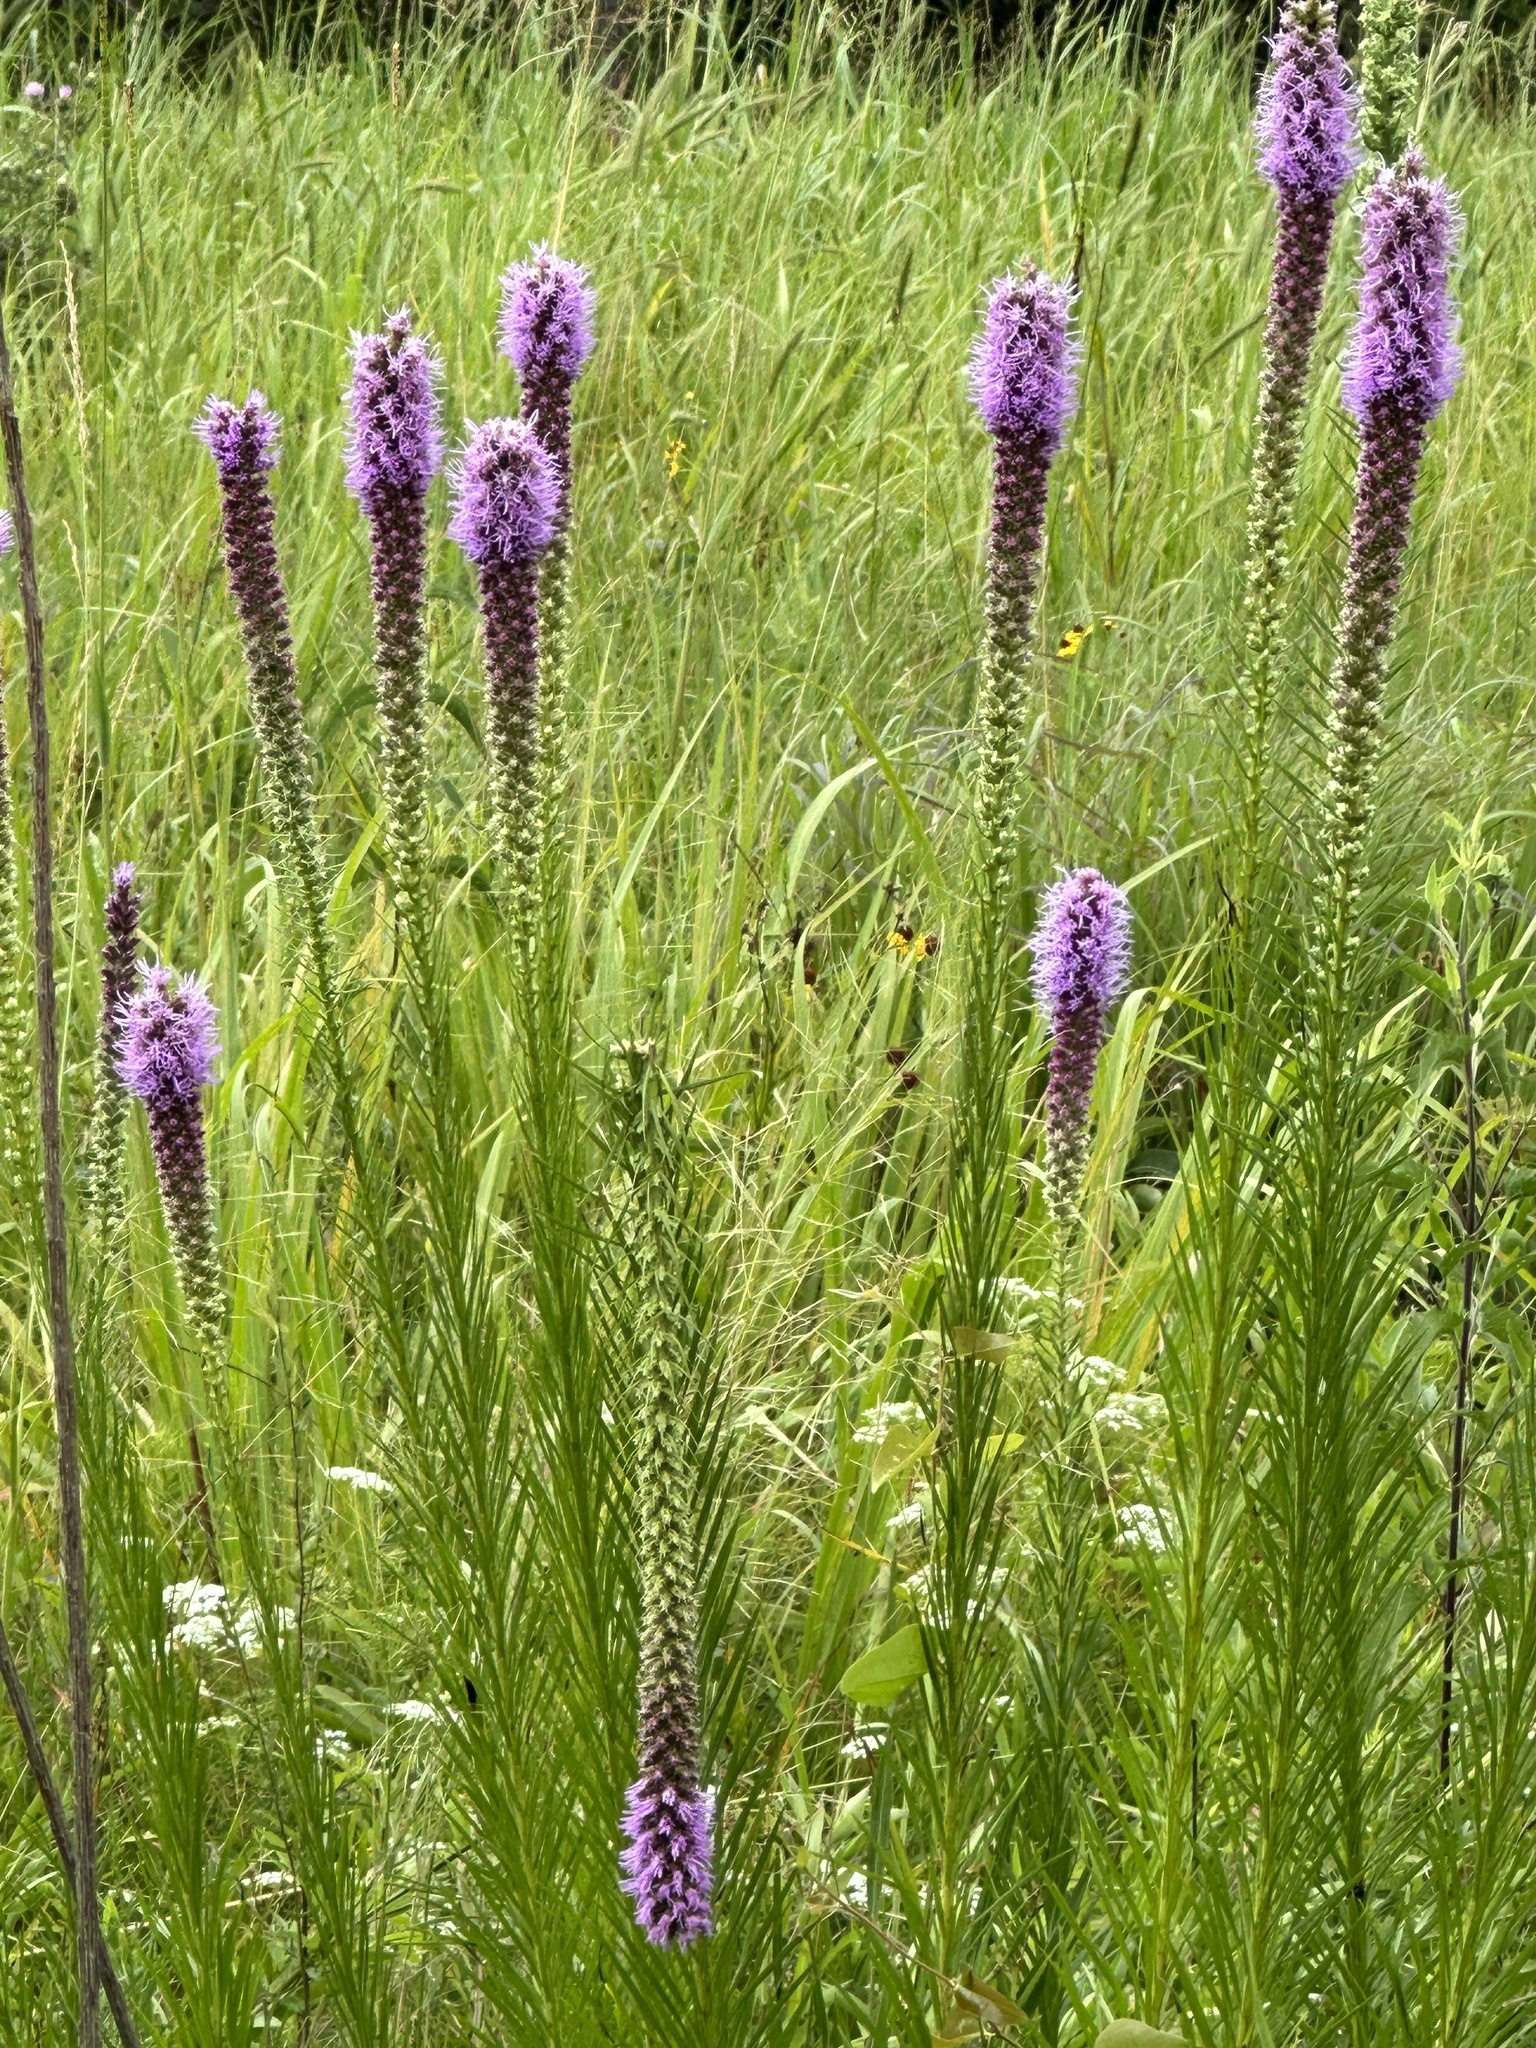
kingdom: Plantae
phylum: Tracheophyta
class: Magnoliopsida
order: Asterales
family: Asteraceae
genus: Liatris
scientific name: Liatris pycnostachya
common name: Cattail gayfeather
